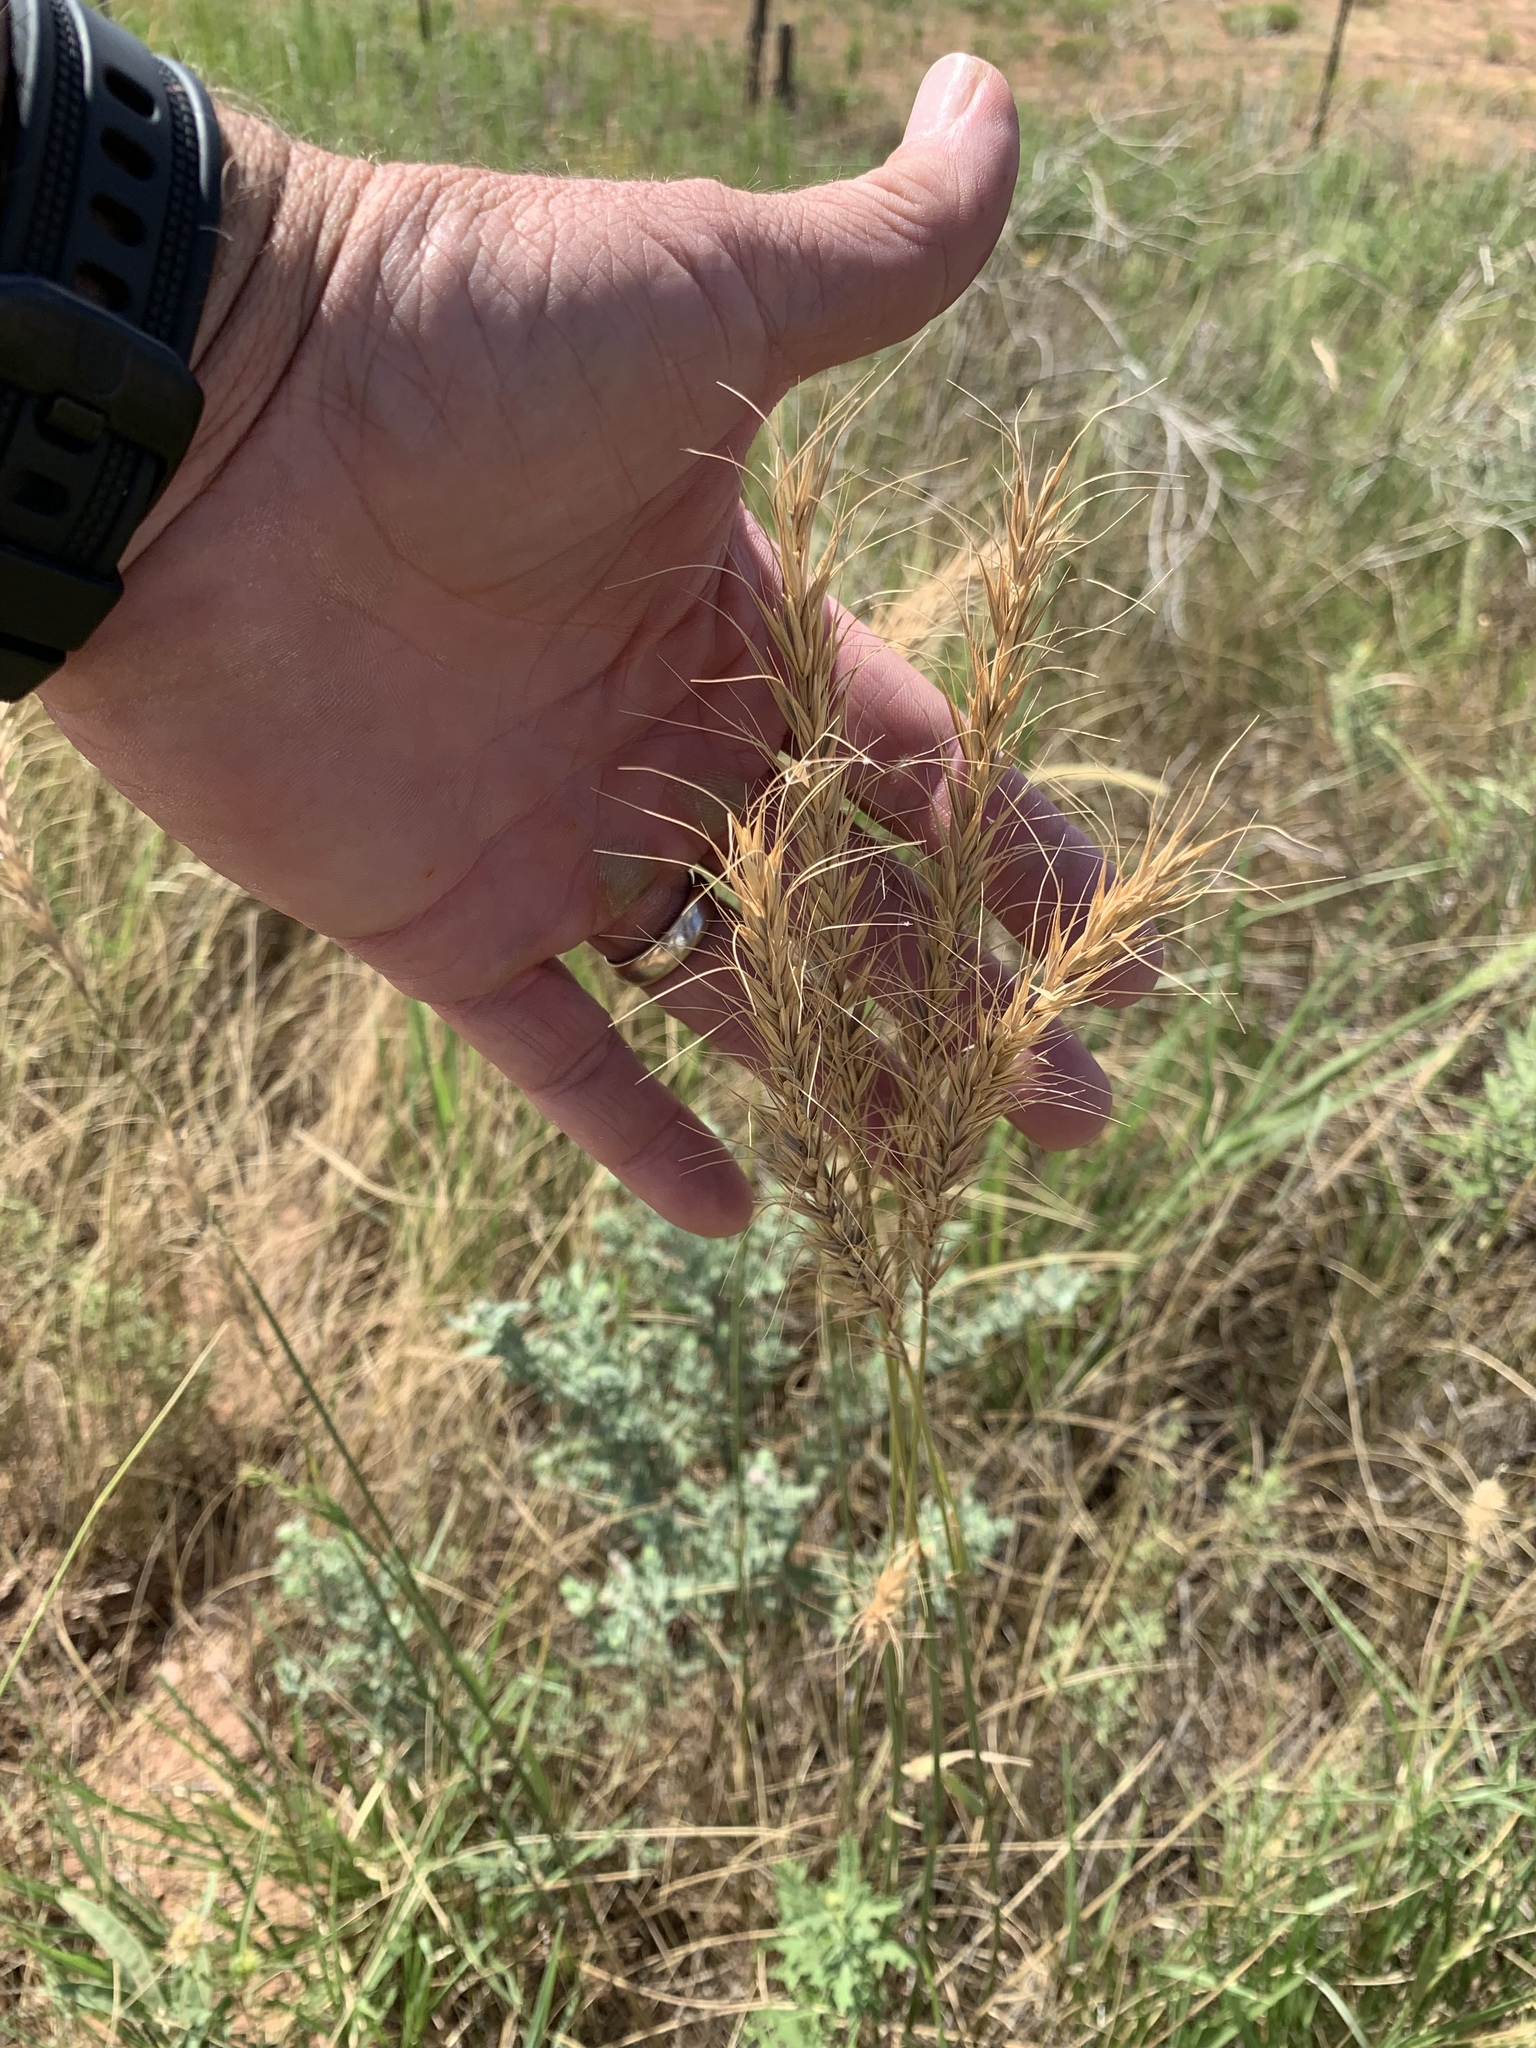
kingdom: Plantae
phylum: Tracheophyta
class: Liliopsida
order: Poales
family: Poaceae
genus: Elymus
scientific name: Elymus canadensis
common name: Canada wild rye
